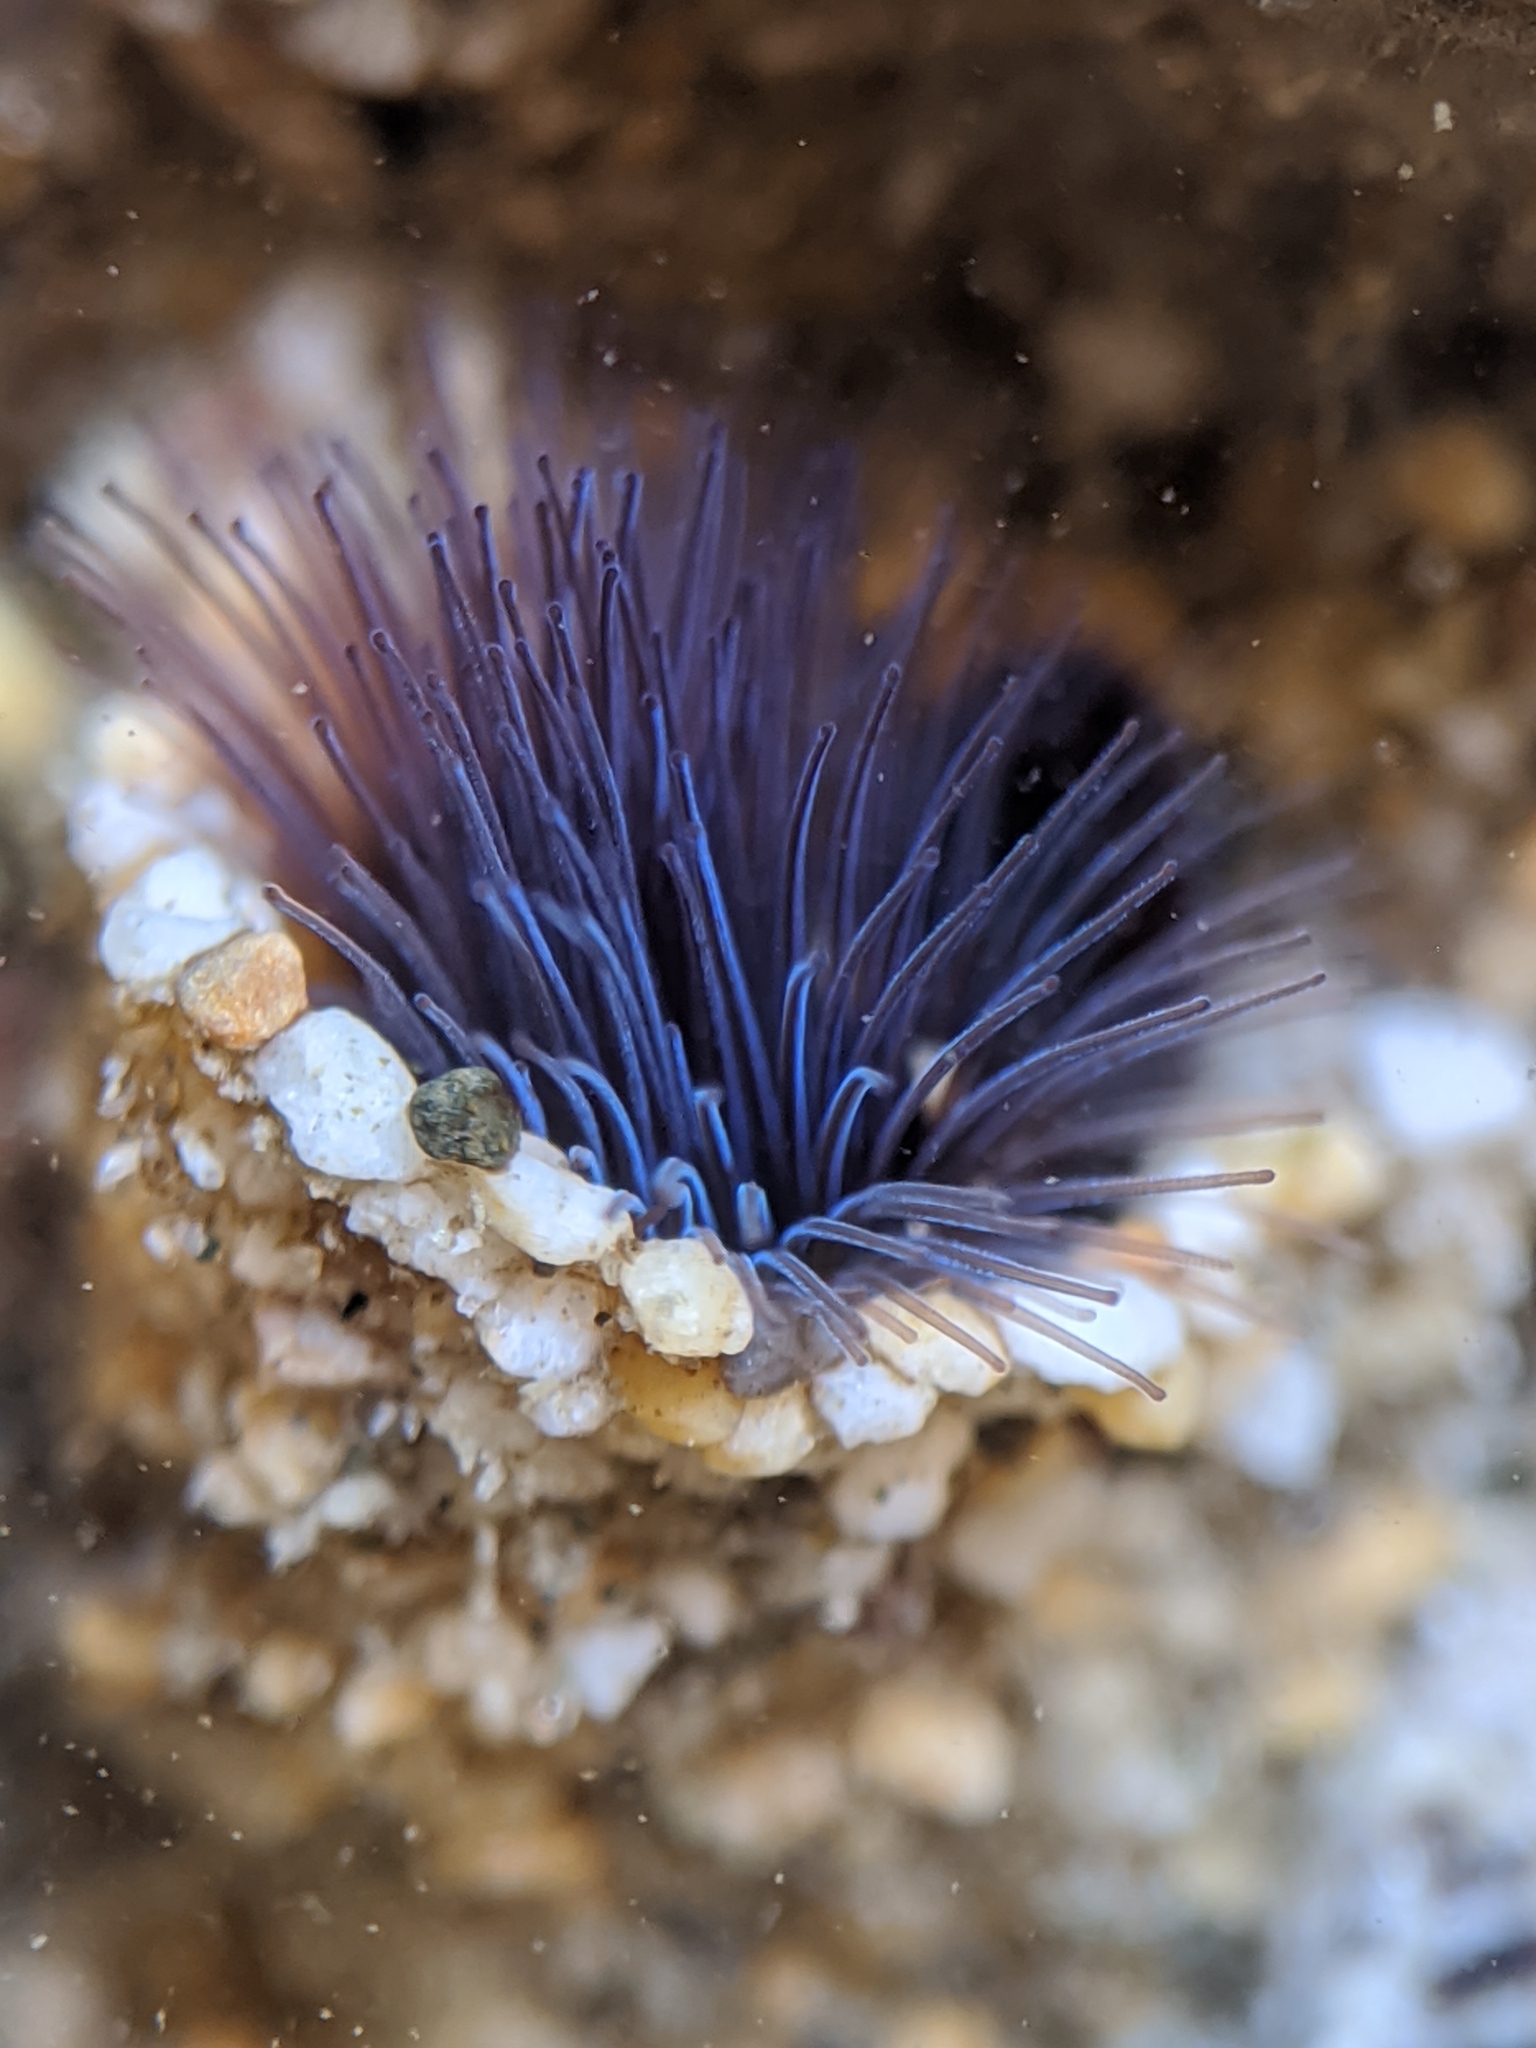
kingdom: Animalia
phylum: Annelida
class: Polychaeta
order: Sabellida
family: Sabellariidae
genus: Phragmatopoma
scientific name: Phragmatopoma californica
